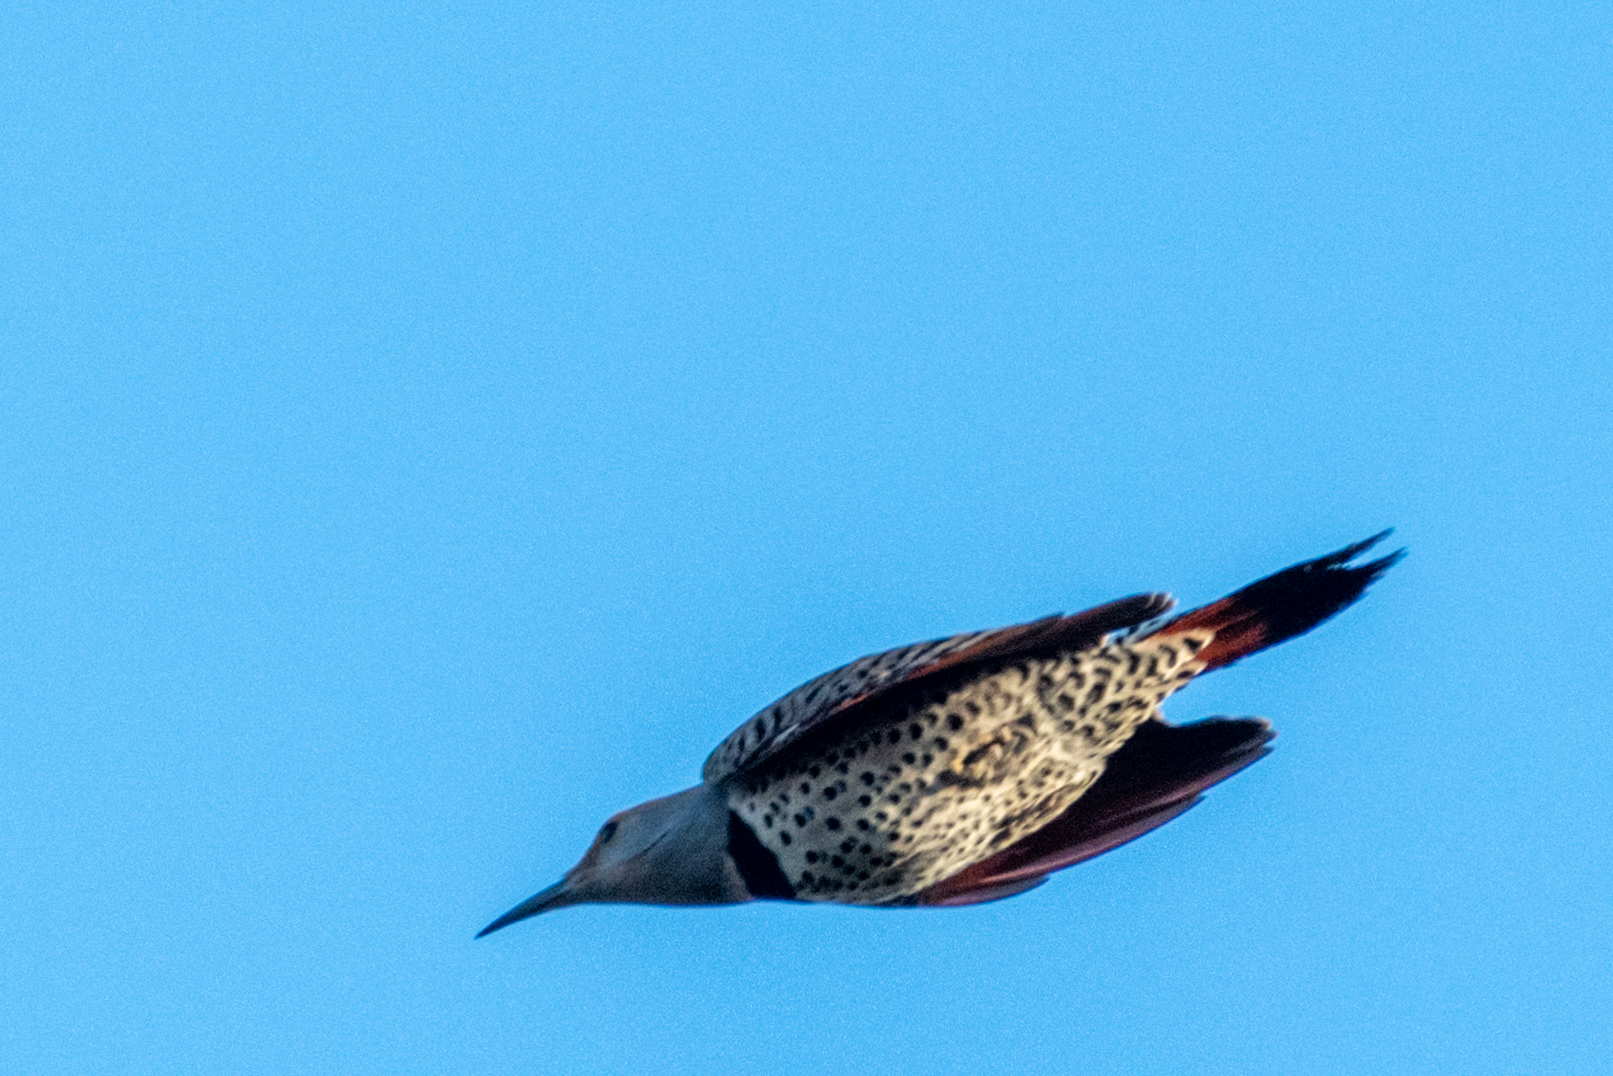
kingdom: Animalia
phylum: Chordata
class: Aves
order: Piciformes
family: Picidae
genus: Colaptes
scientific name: Colaptes auratus
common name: Northern flicker
